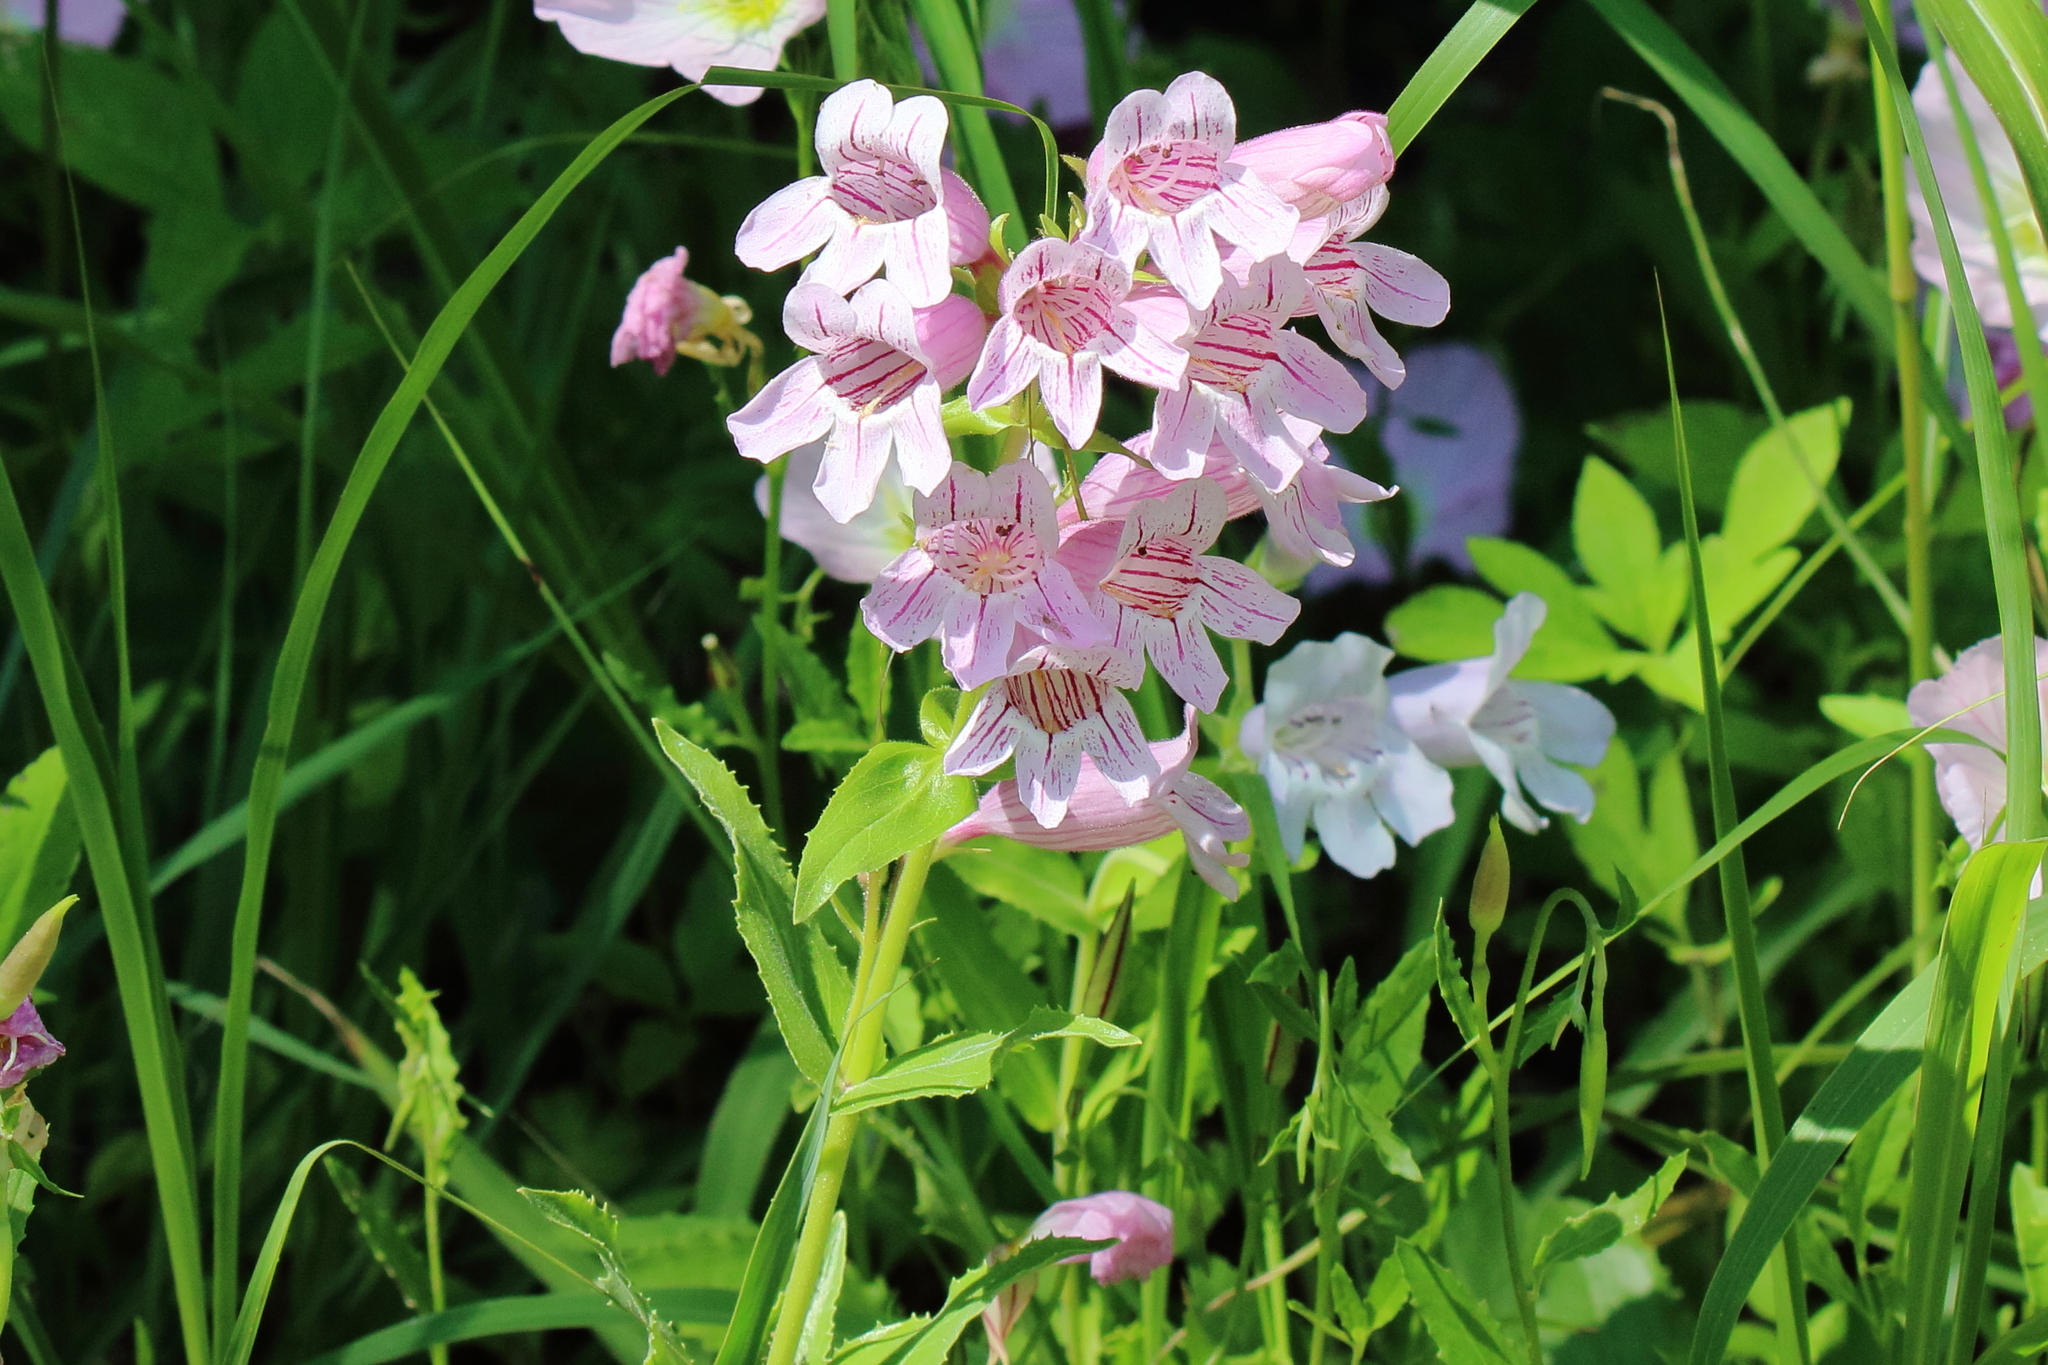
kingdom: Plantae
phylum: Tracheophyta
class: Magnoliopsida
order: Lamiales
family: Plantaginaceae
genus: Penstemon
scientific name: Penstemon cobaea
